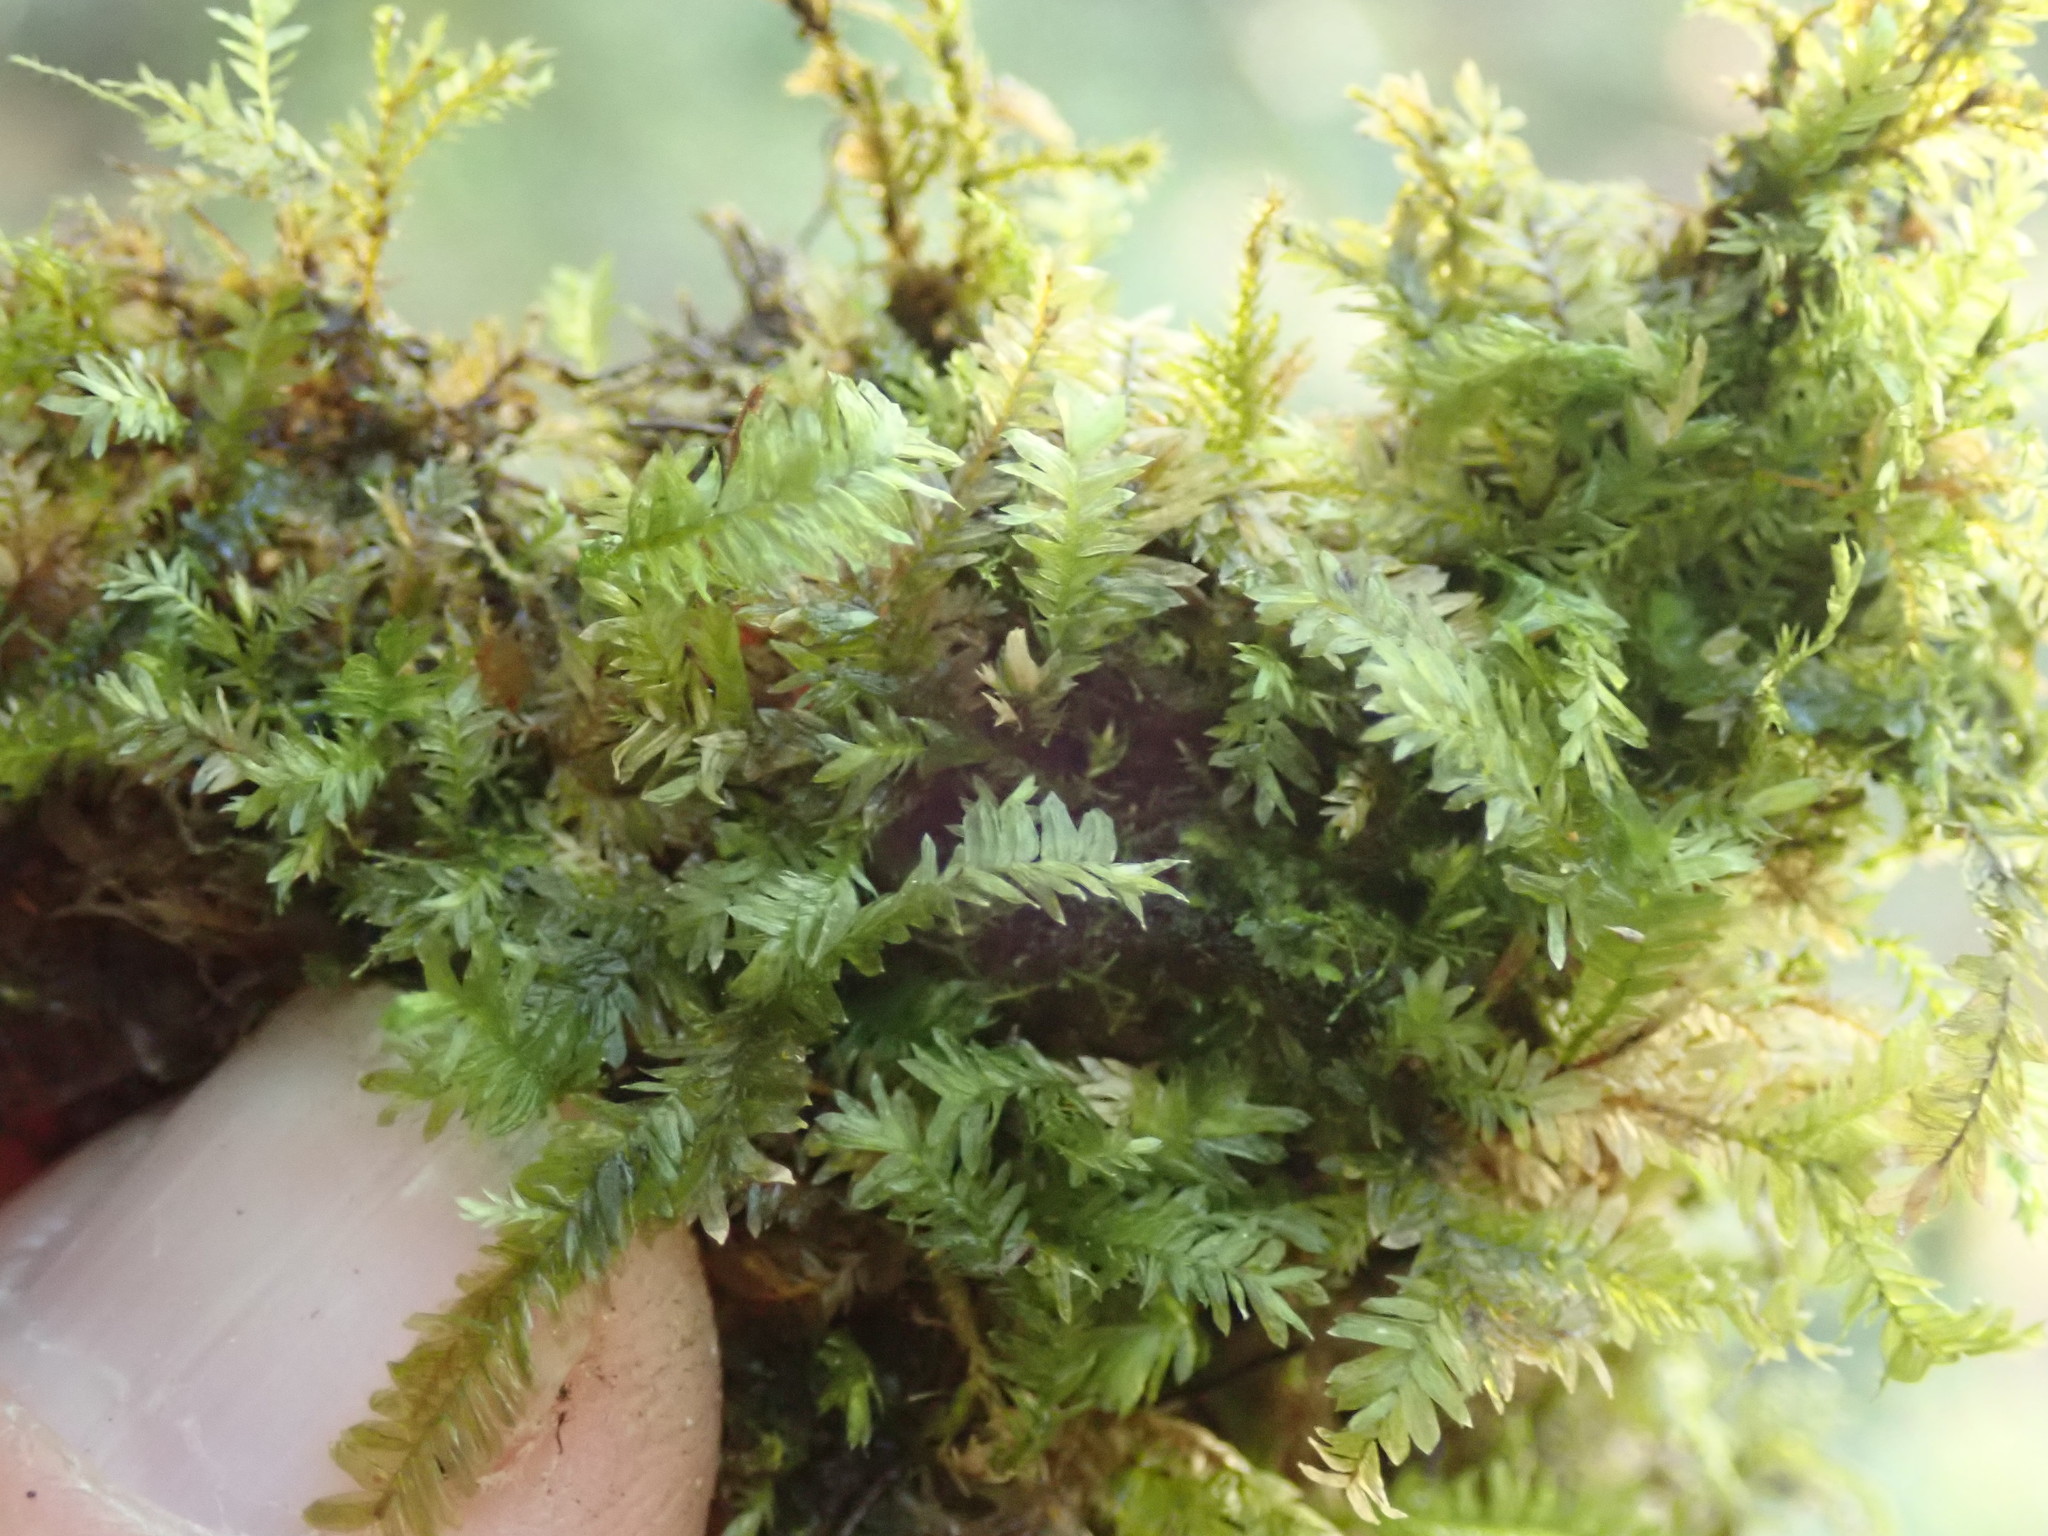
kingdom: Plantae
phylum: Bryophyta
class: Bryopsida
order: Hypnales
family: Neckeraceae
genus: Dannorrisia
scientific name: Dannorrisia bigelovii
